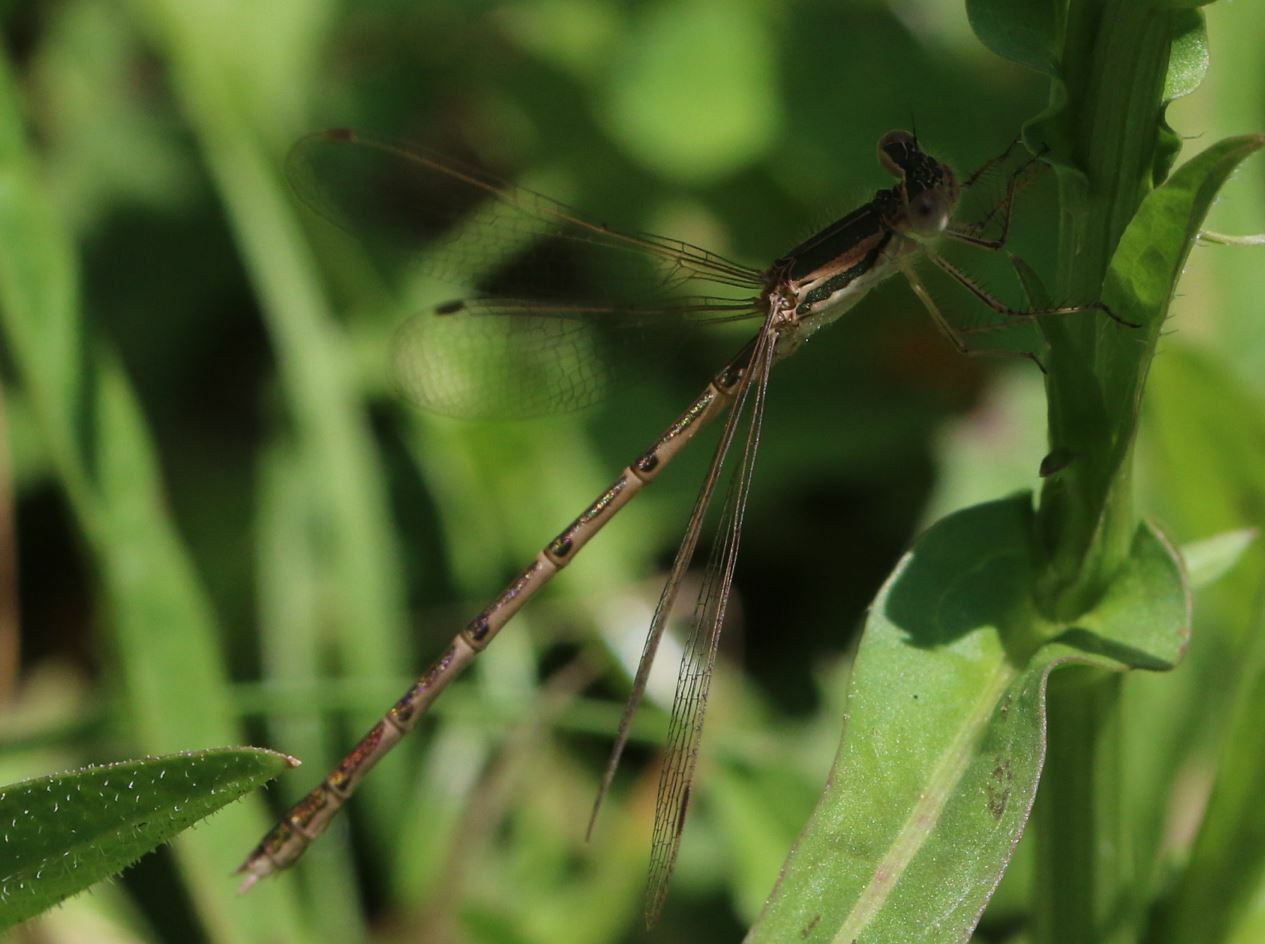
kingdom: Animalia
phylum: Arthropoda
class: Insecta
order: Odonata
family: Lestidae
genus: Sympecma
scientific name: Sympecma fusca
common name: Common winter damsel
